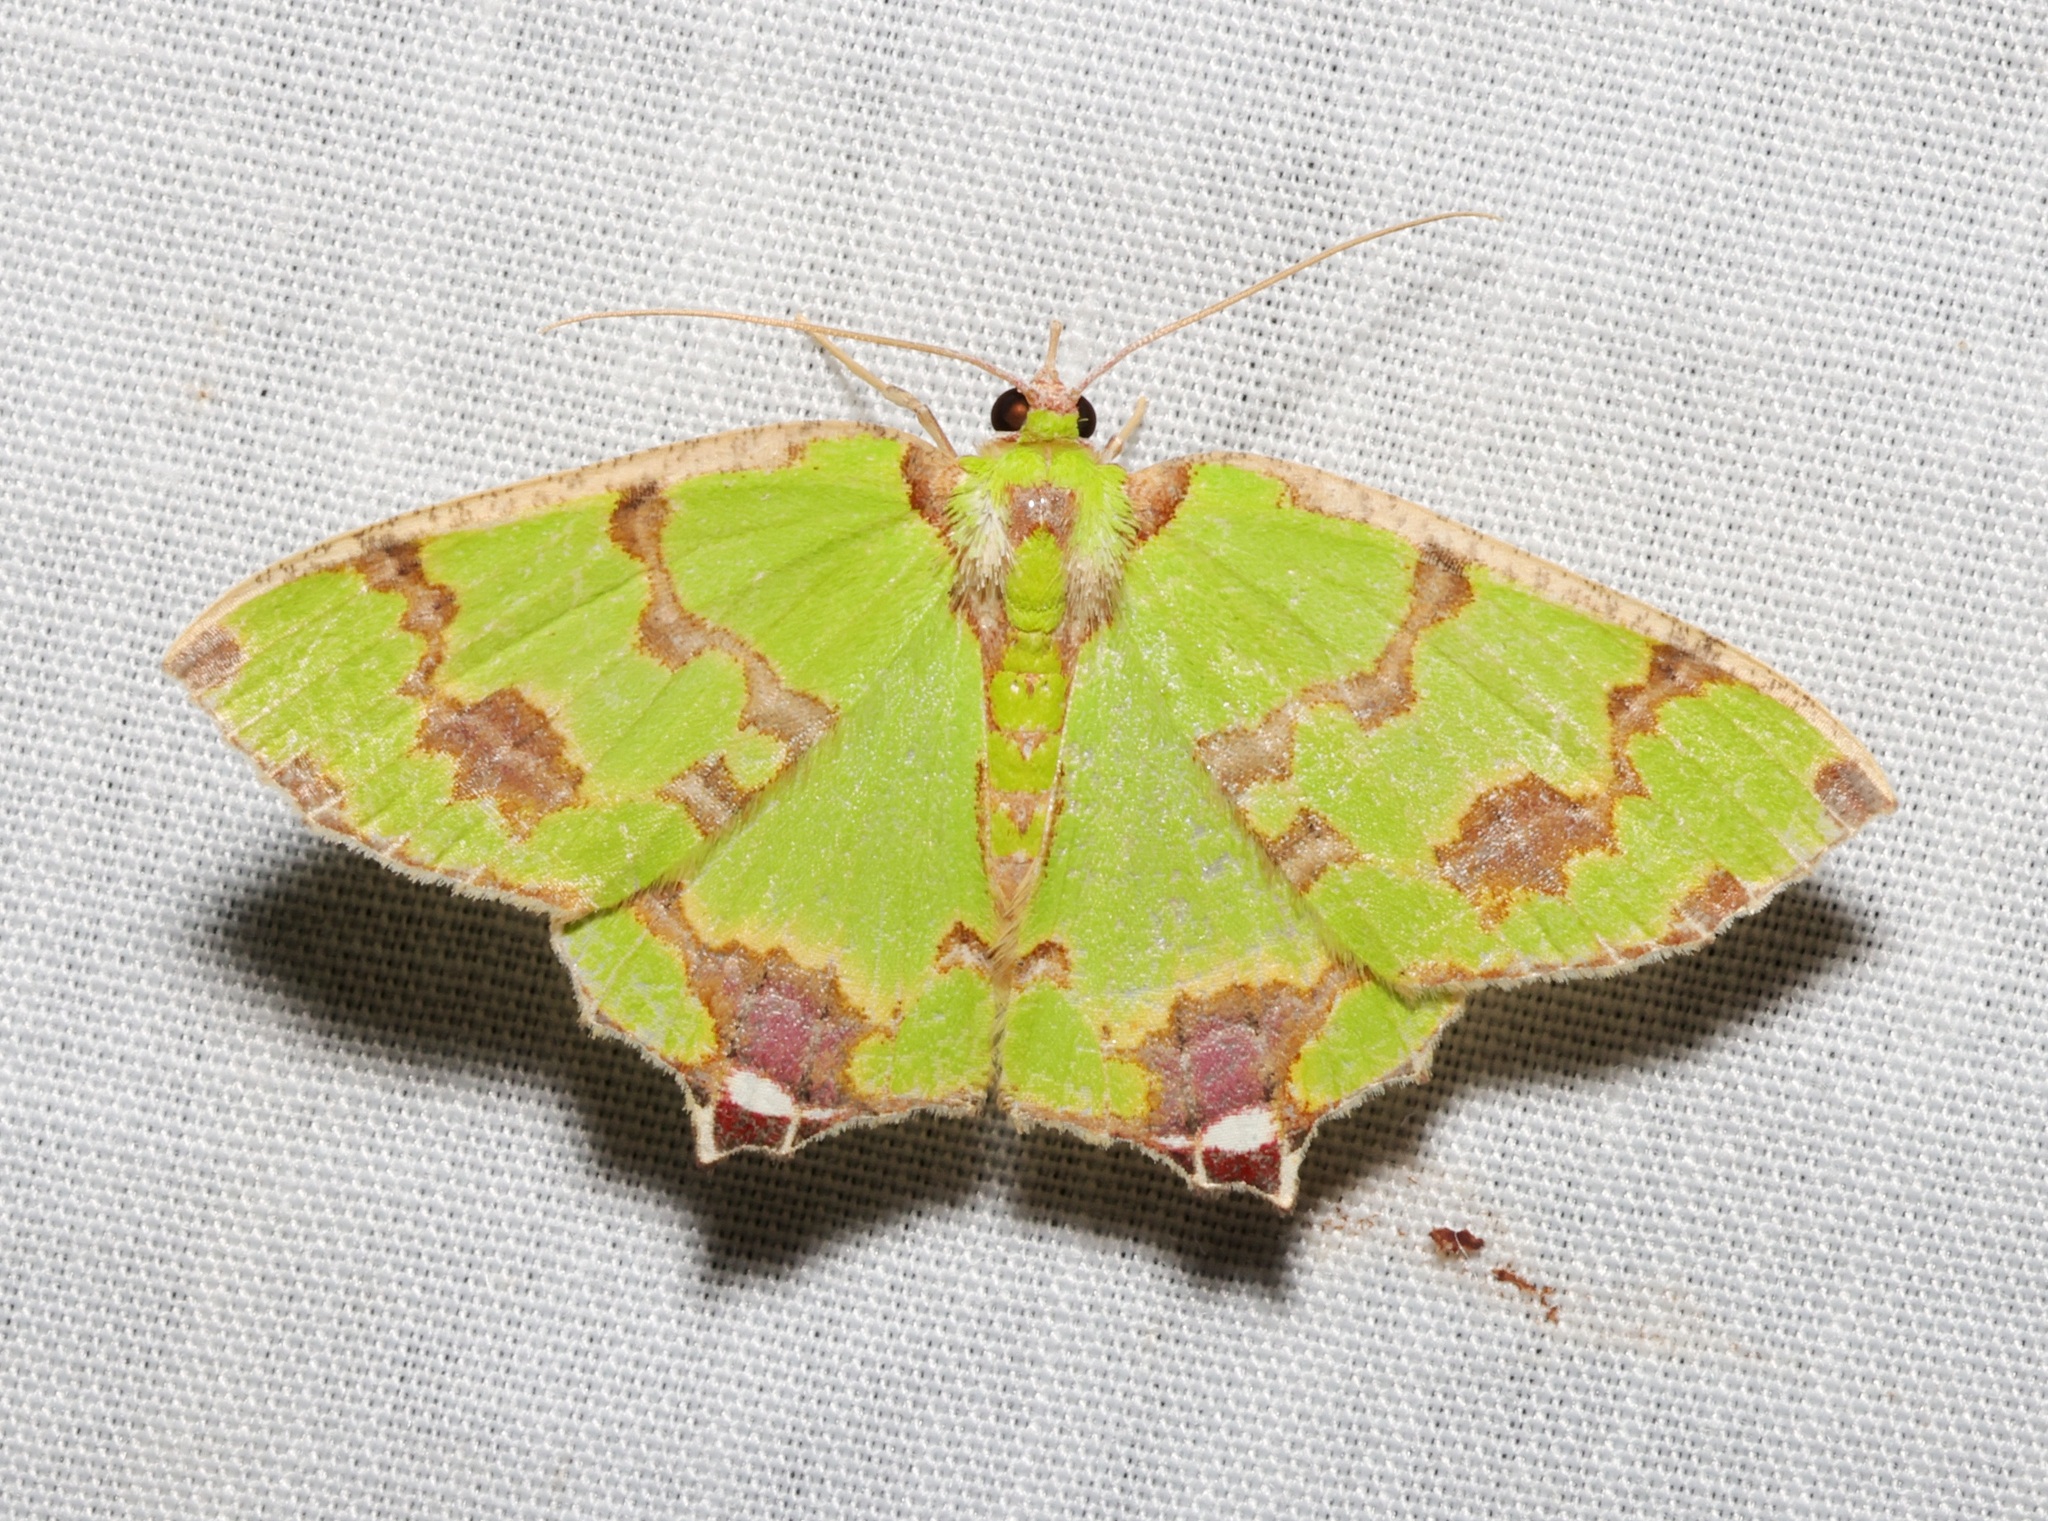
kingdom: Animalia
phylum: Arthropoda
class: Insecta
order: Lepidoptera
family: Geometridae
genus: Agathia
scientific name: Agathia lycaenaria
